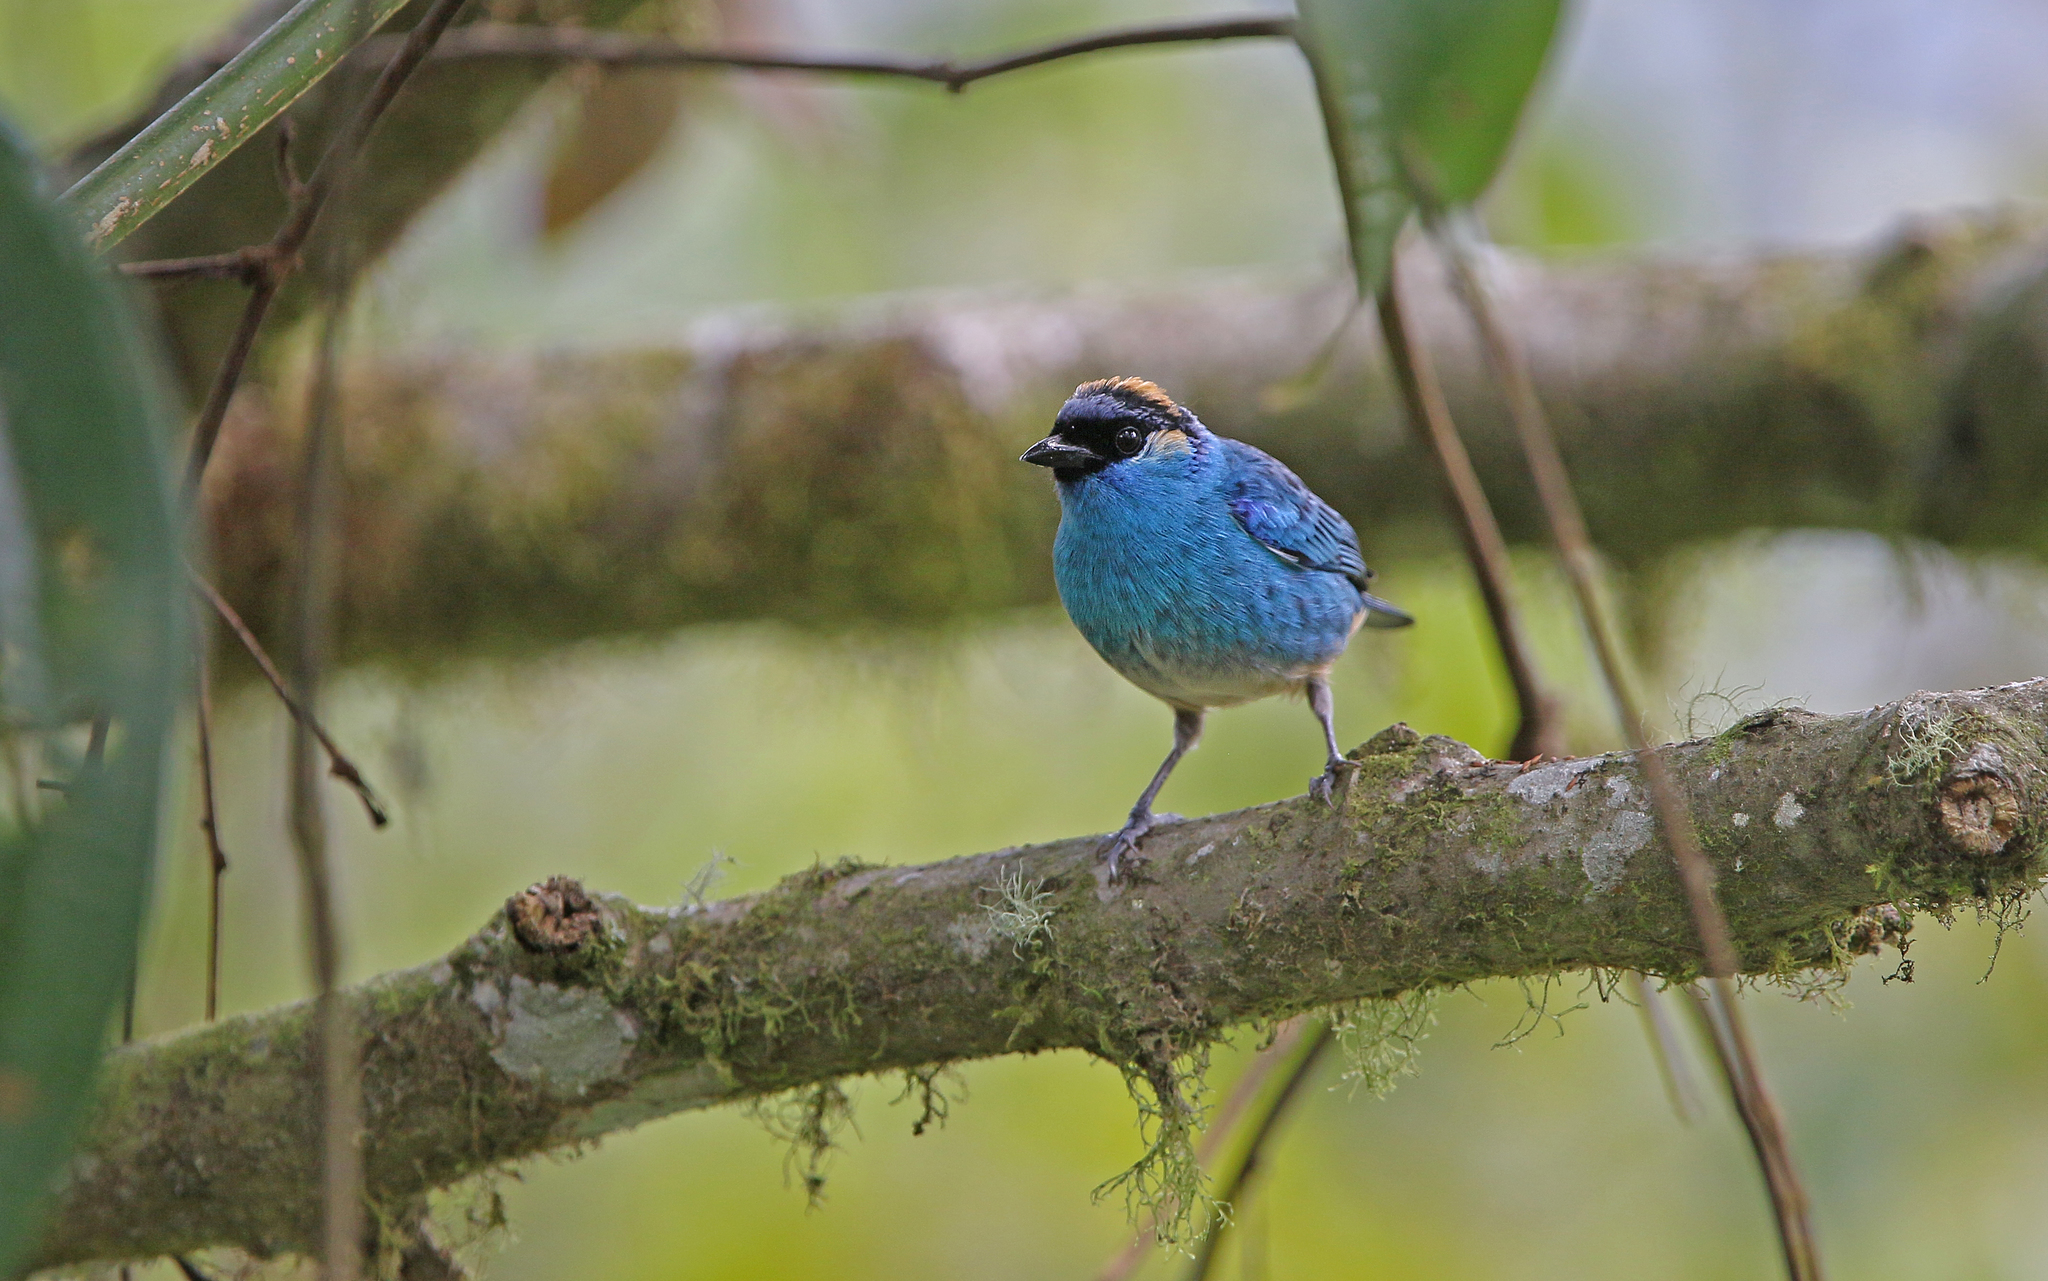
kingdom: Animalia
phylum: Chordata
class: Aves
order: Passeriformes
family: Thraupidae
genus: Chalcothraupis
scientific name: Chalcothraupis ruficervix
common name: Golden-naped tanager
